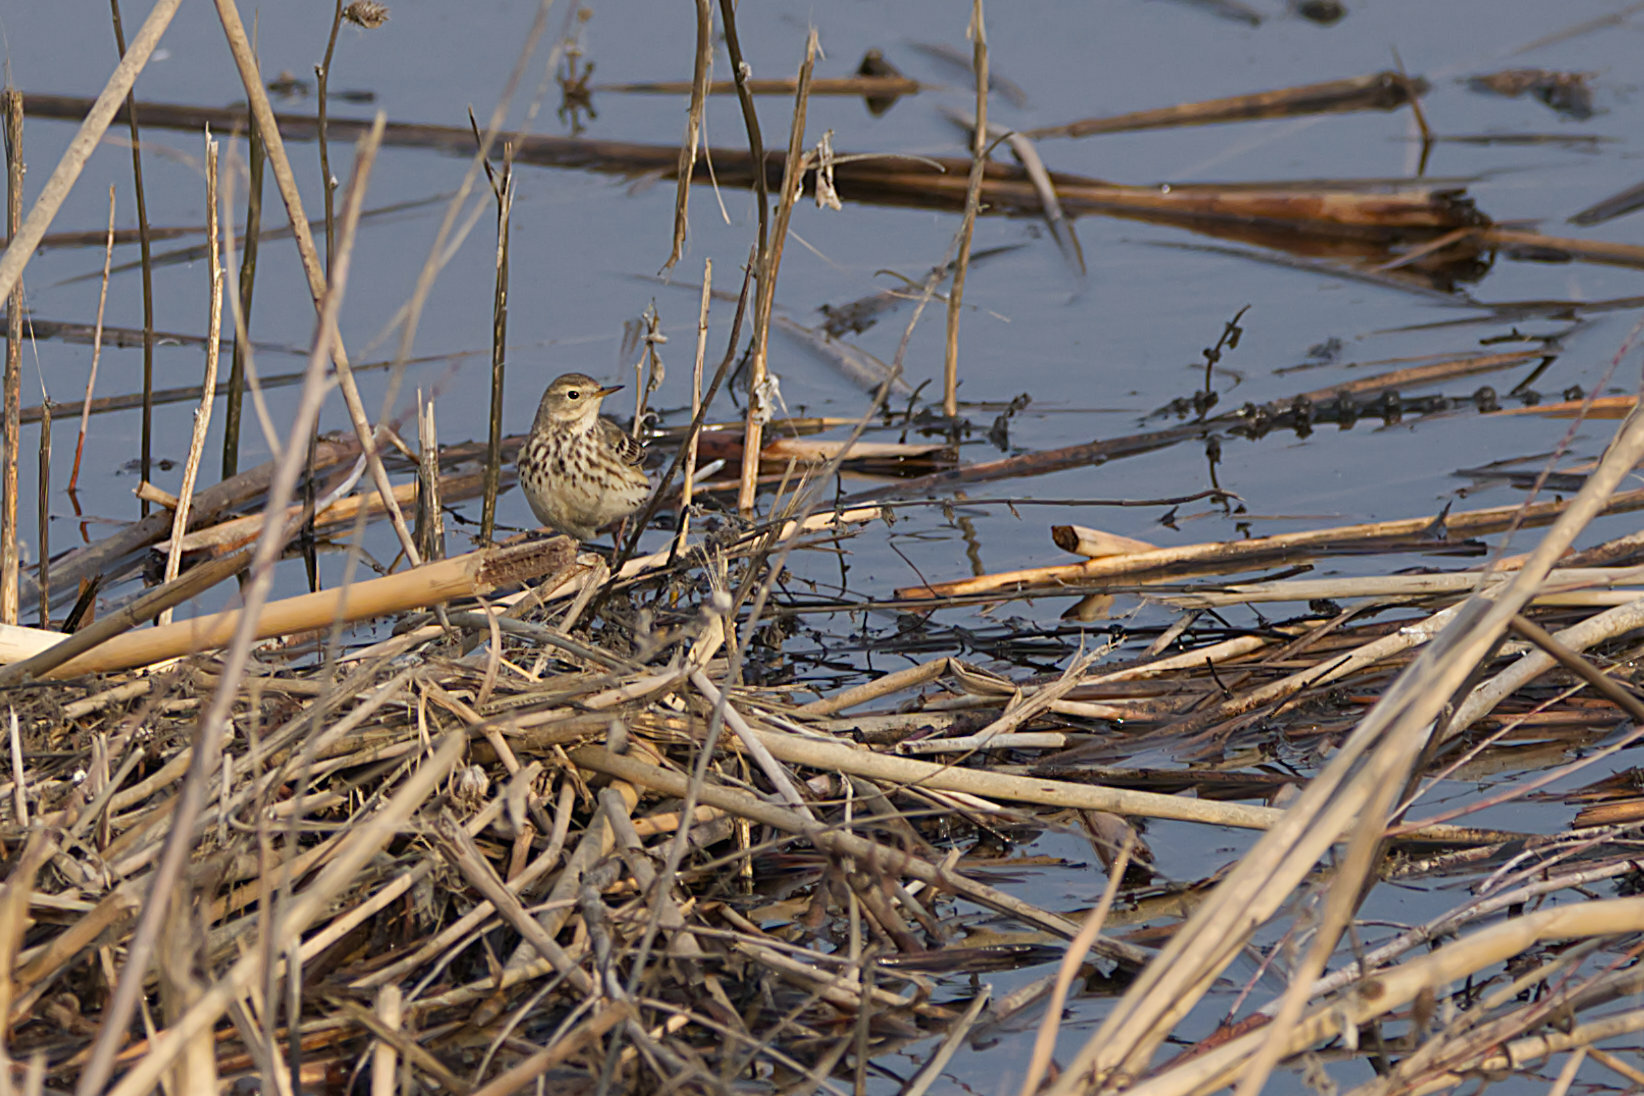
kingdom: Animalia
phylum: Chordata
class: Aves
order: Passeriformes
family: Motacillidae
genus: Anthus
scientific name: Anthus rubescens
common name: Buff-bellied pipit
